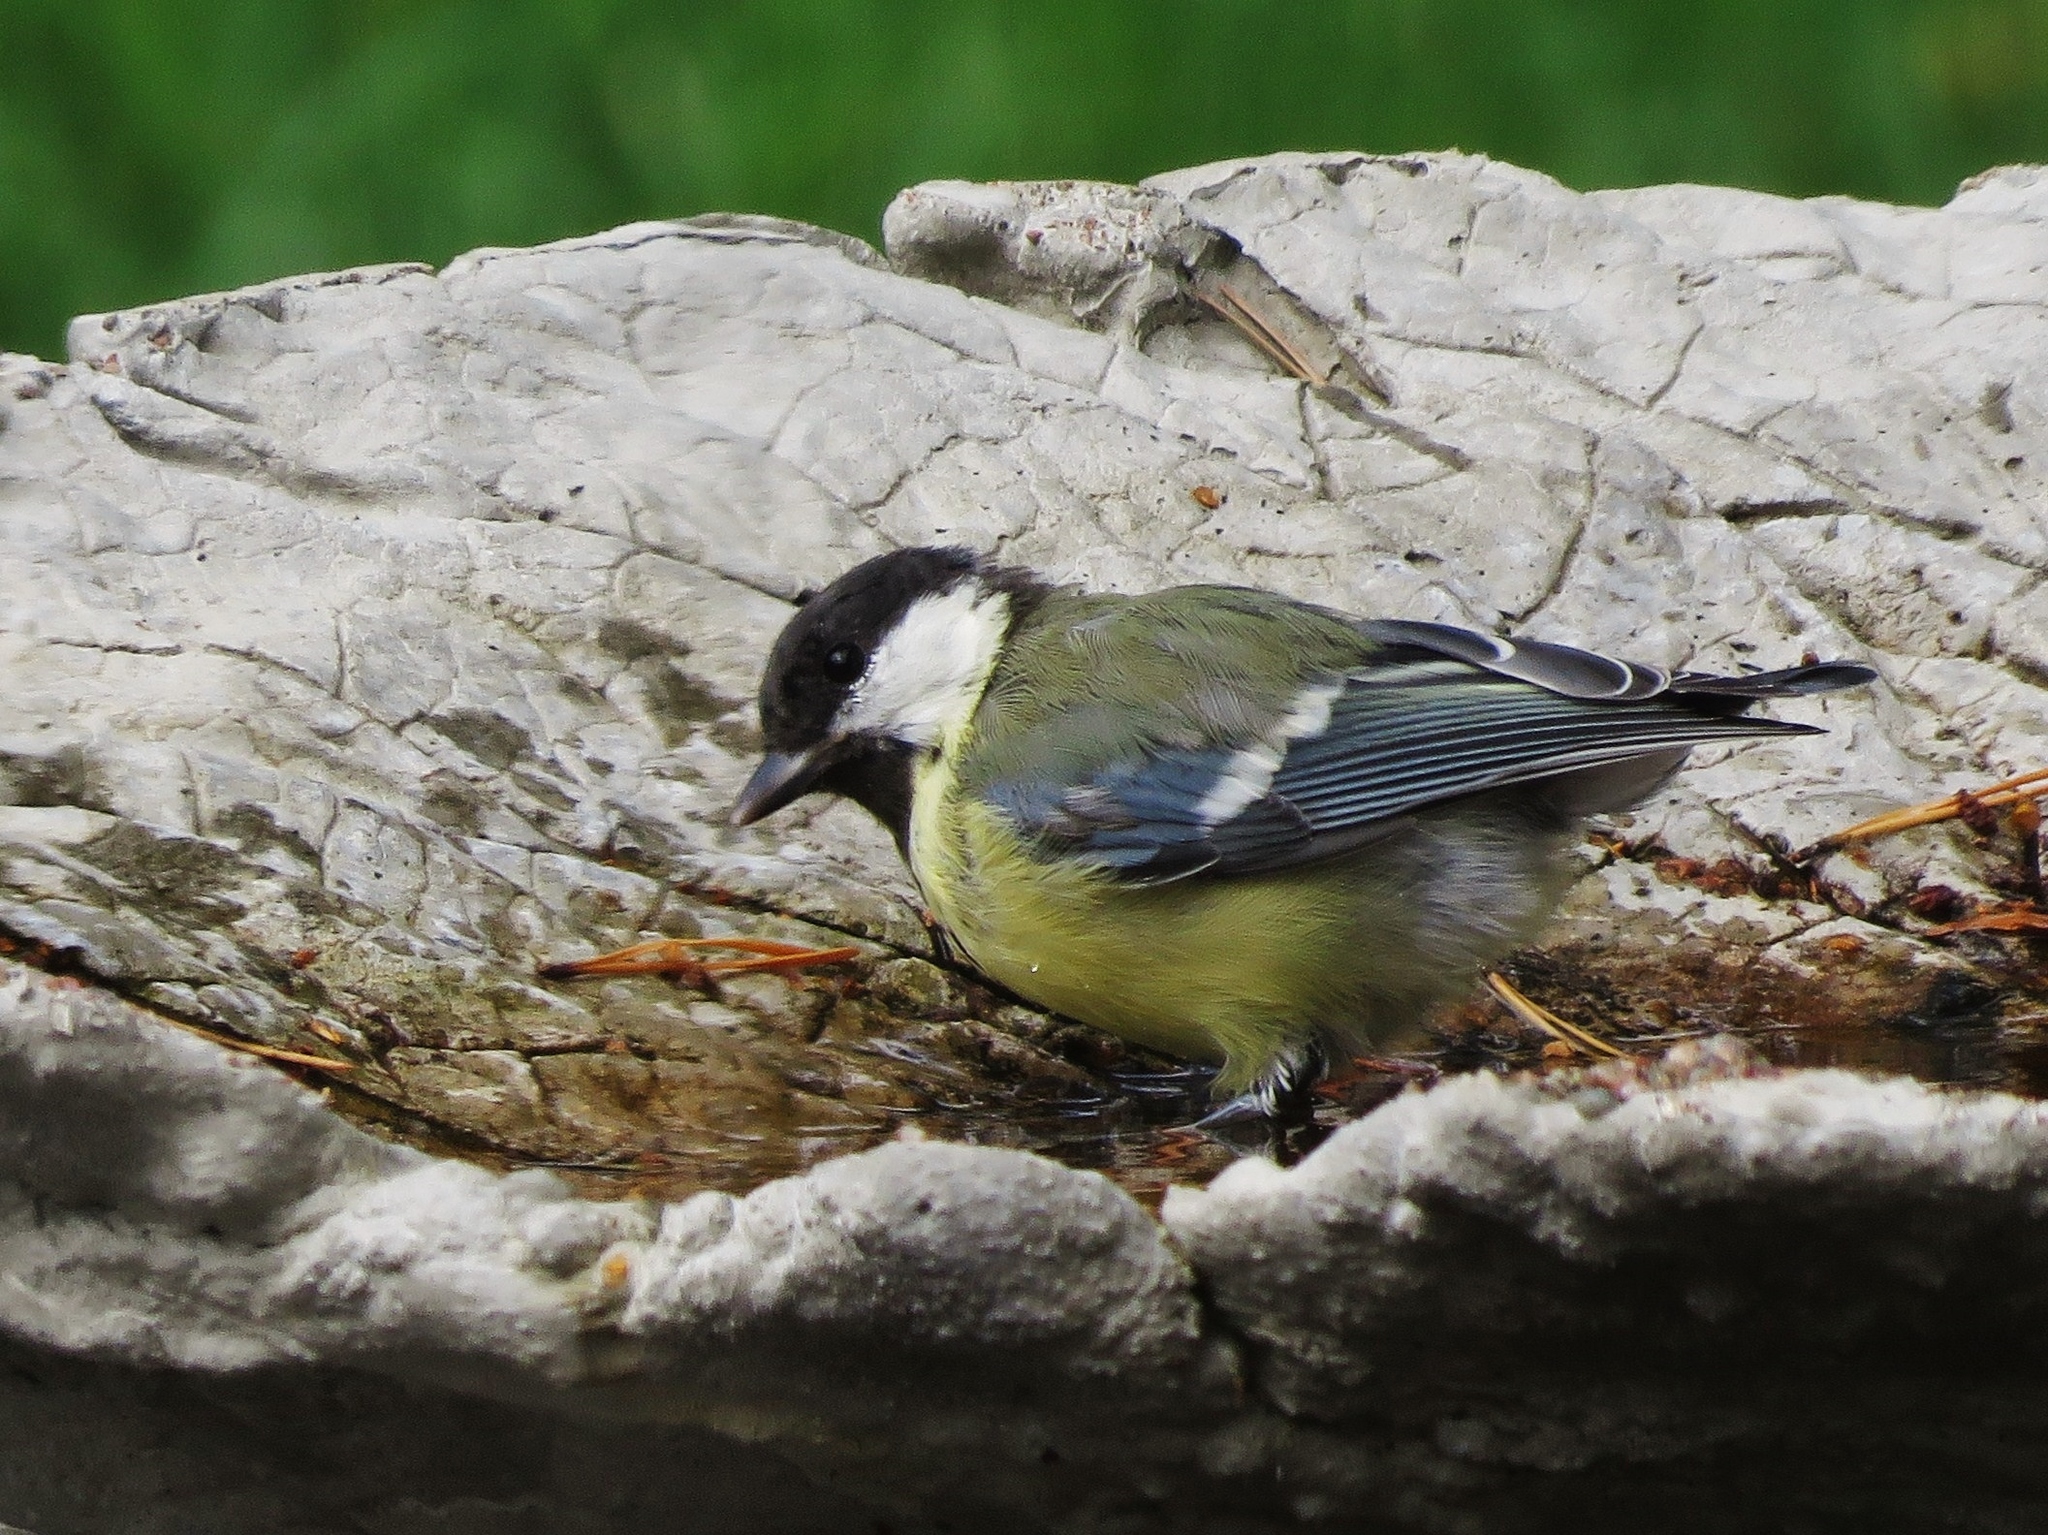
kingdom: Animalia
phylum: Chordata
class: Aves
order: Passeriformes
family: Paridae
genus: Parus
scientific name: Parus major
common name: Great tit
